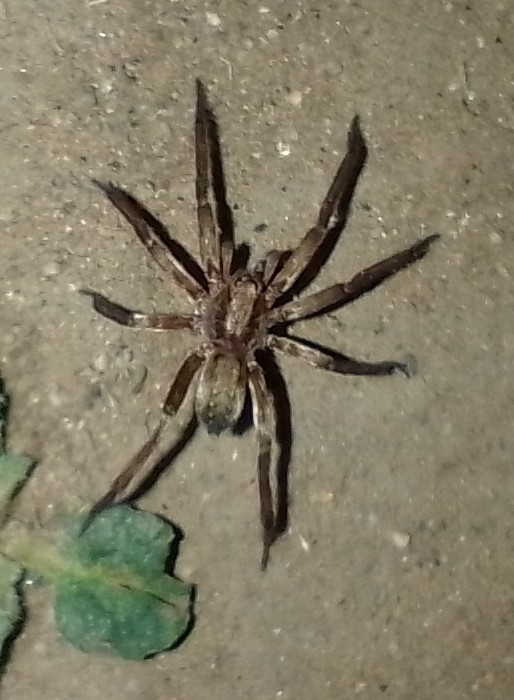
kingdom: Animalia
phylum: Arthropoda
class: Arachnida
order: Araneae
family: Ctenidae
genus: Asthenoctenus
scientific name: Asthenoctenus borellii
